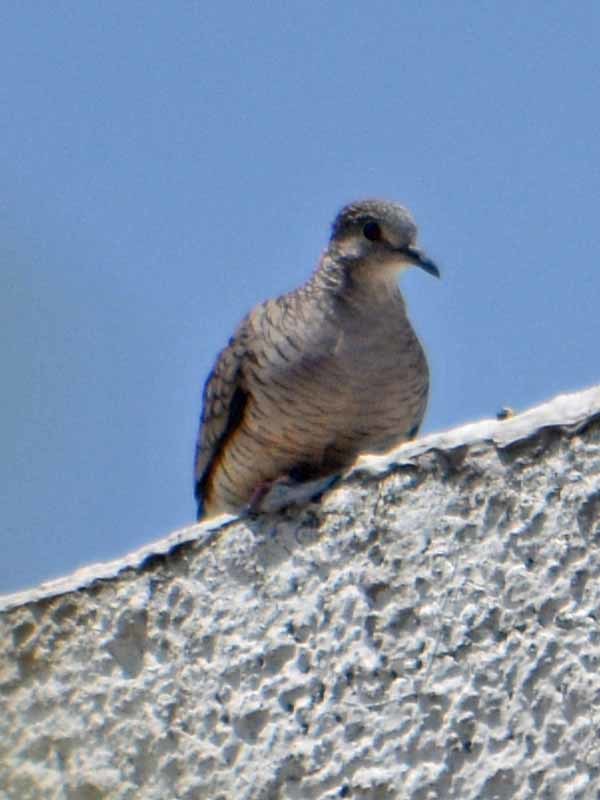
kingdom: Animalia
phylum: Chordata
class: Aves
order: Columbiformes
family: Columbidae
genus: Columbina
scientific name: Columbina inca
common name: Inca dove
